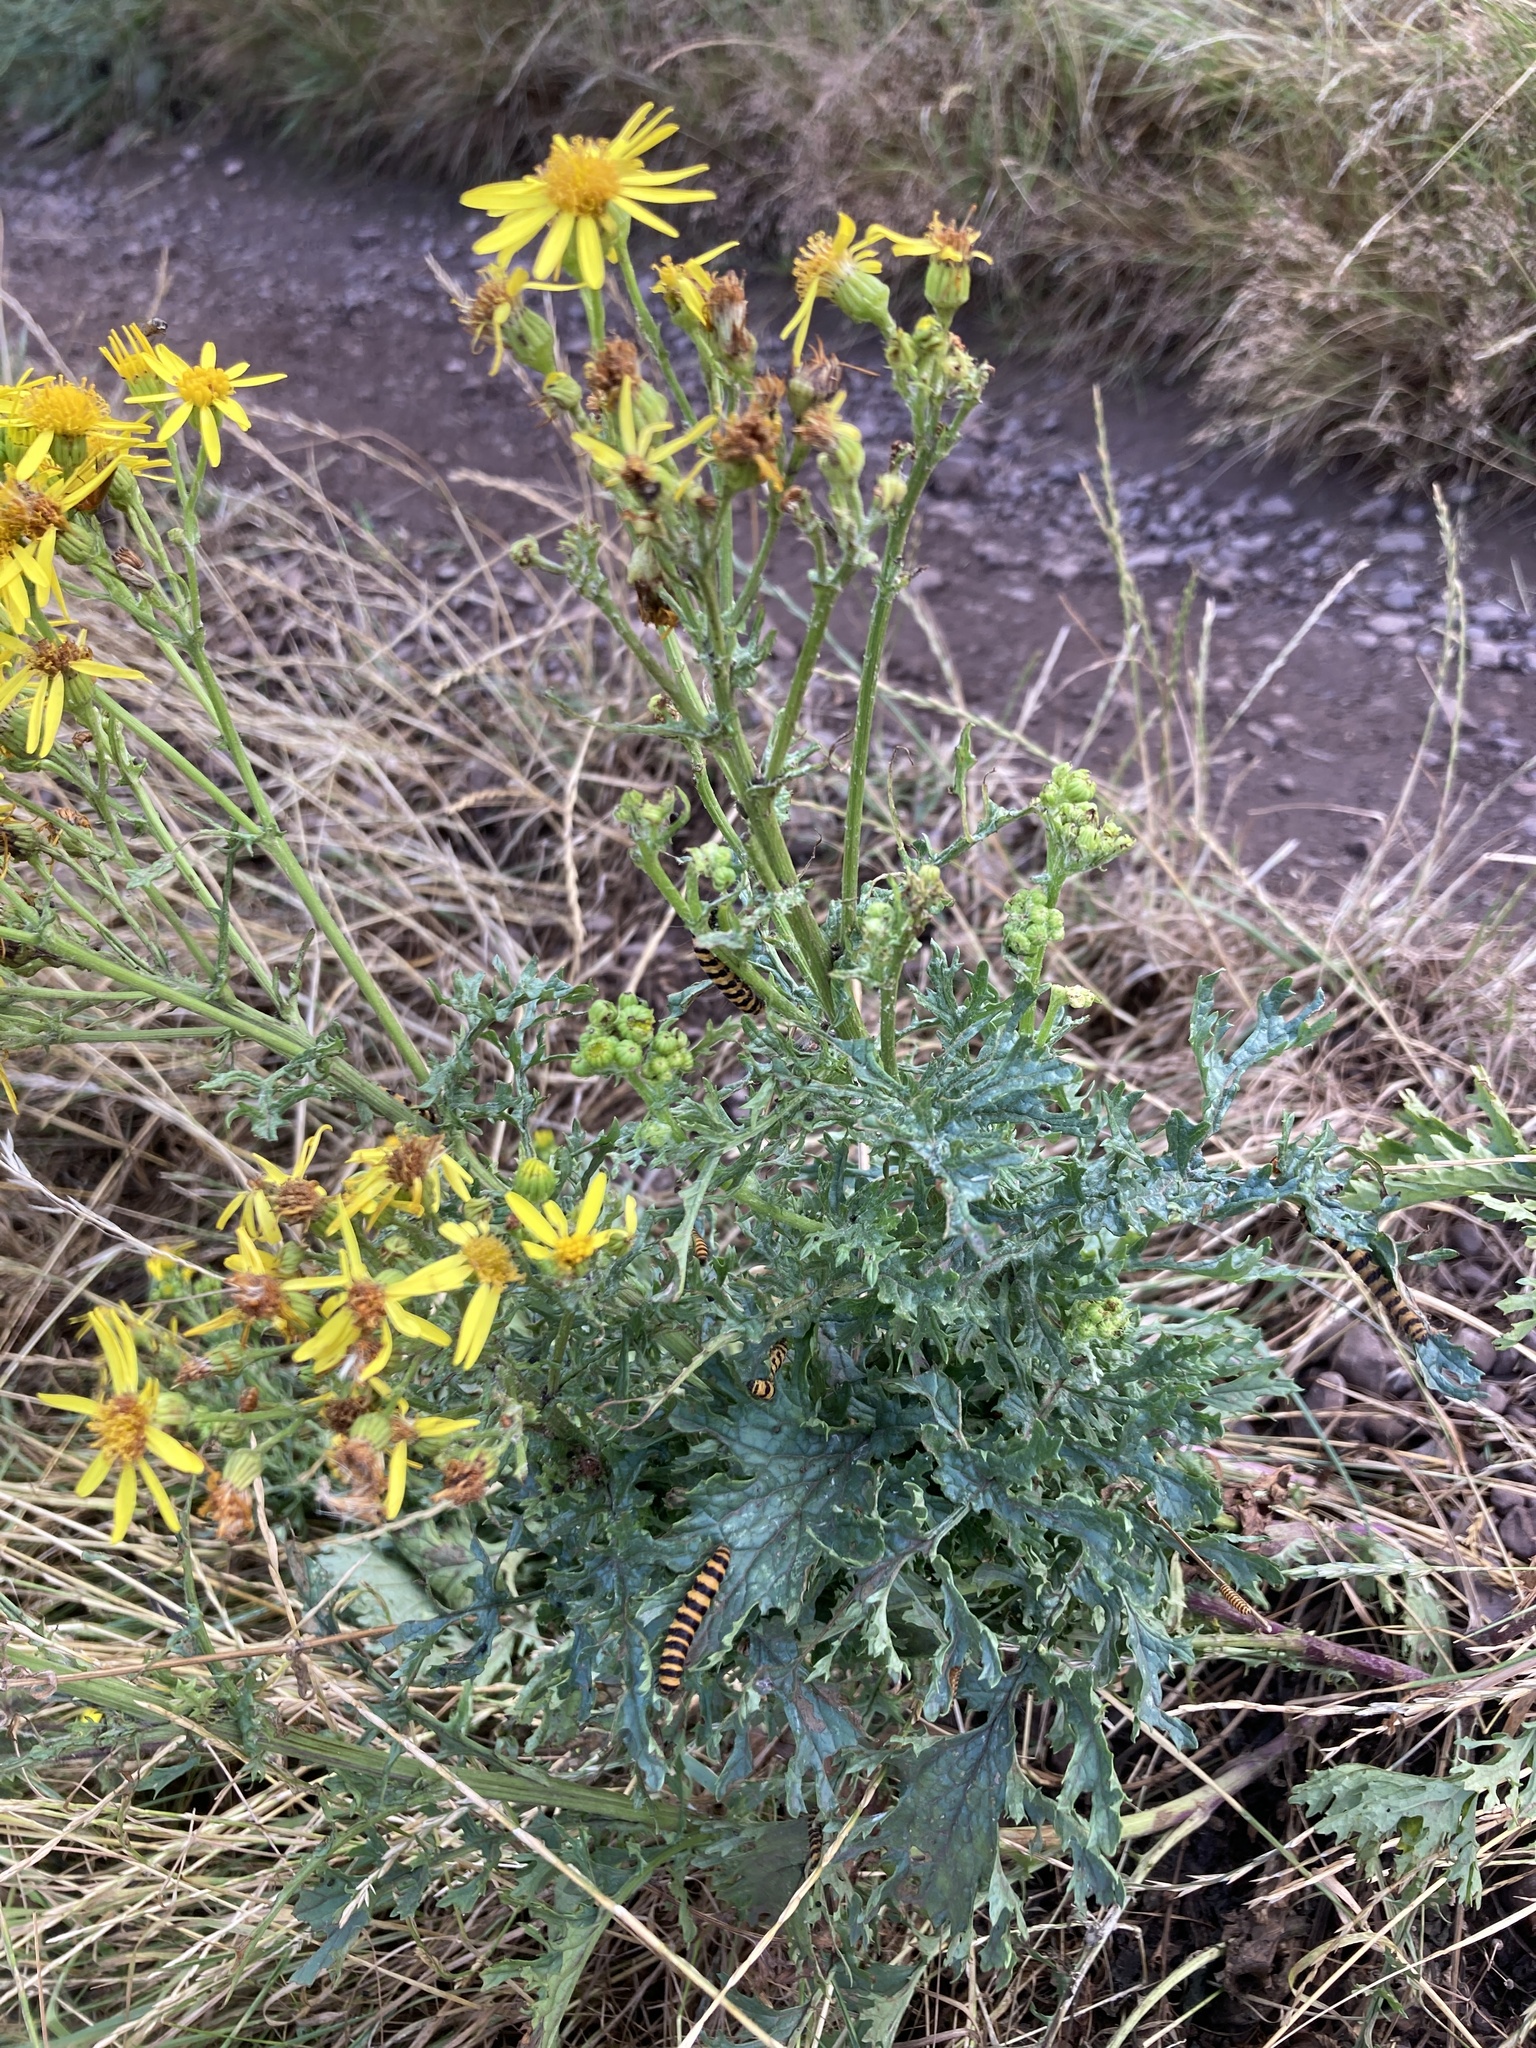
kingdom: Plantae
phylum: Tracheophyta
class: Magnoliopsida
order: Asterales
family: Asteraceae
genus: Jacobaea
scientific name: Jacobaea vulgaris
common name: Stinking willie
